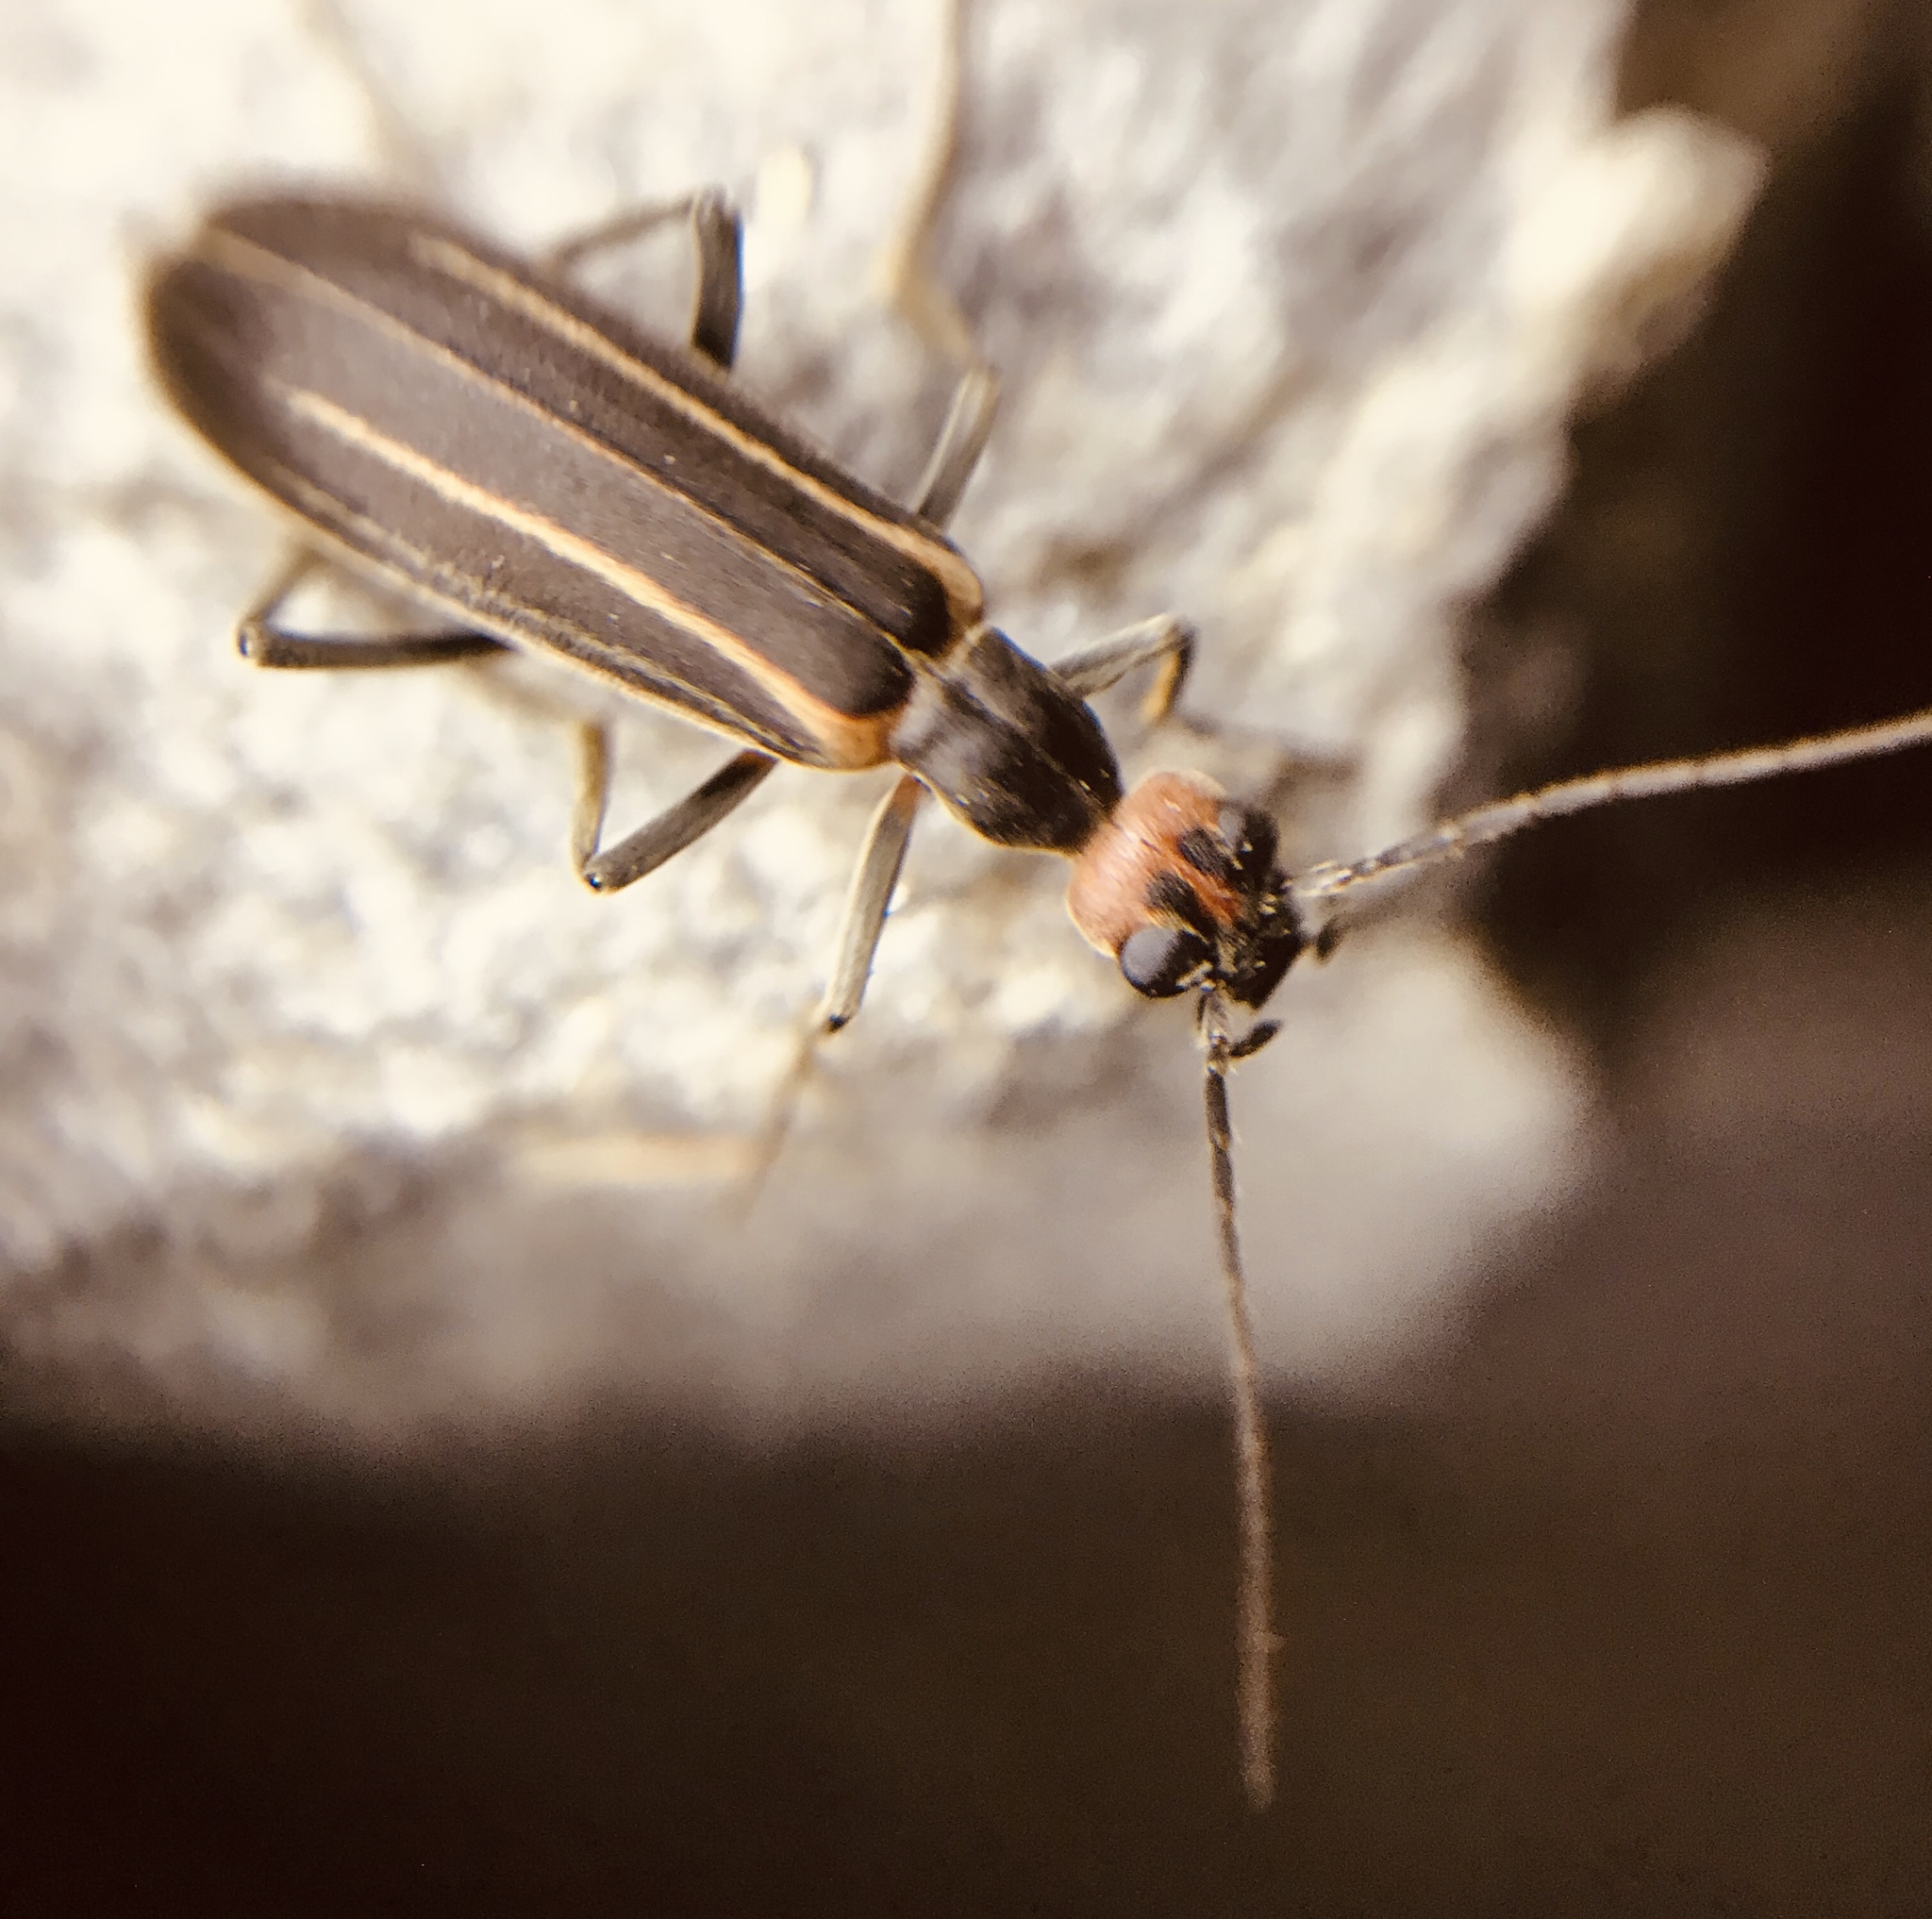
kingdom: Animalia
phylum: Arthropoda
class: Insecta
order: Coleoptera
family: Meloidae
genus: Epicauta
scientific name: Epicauta grammica
